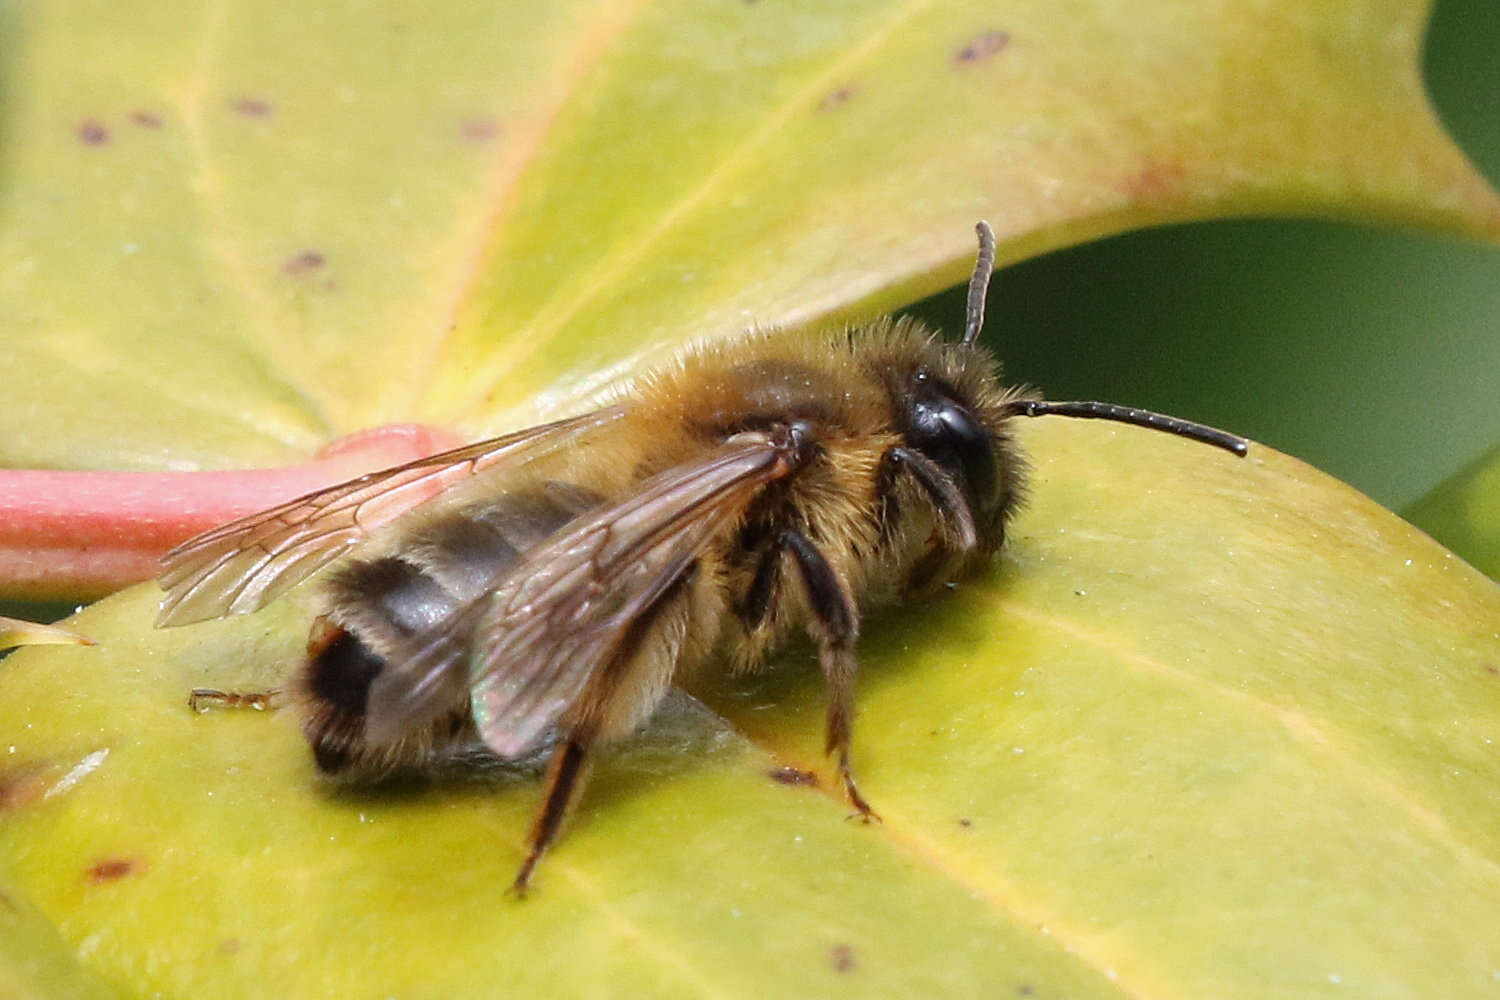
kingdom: Animalia
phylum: Arthropoda
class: Insecta
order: Hymenoptera
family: Andrenidae
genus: Andrena
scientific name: Andrena carantonica
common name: Chocolate mining bee
